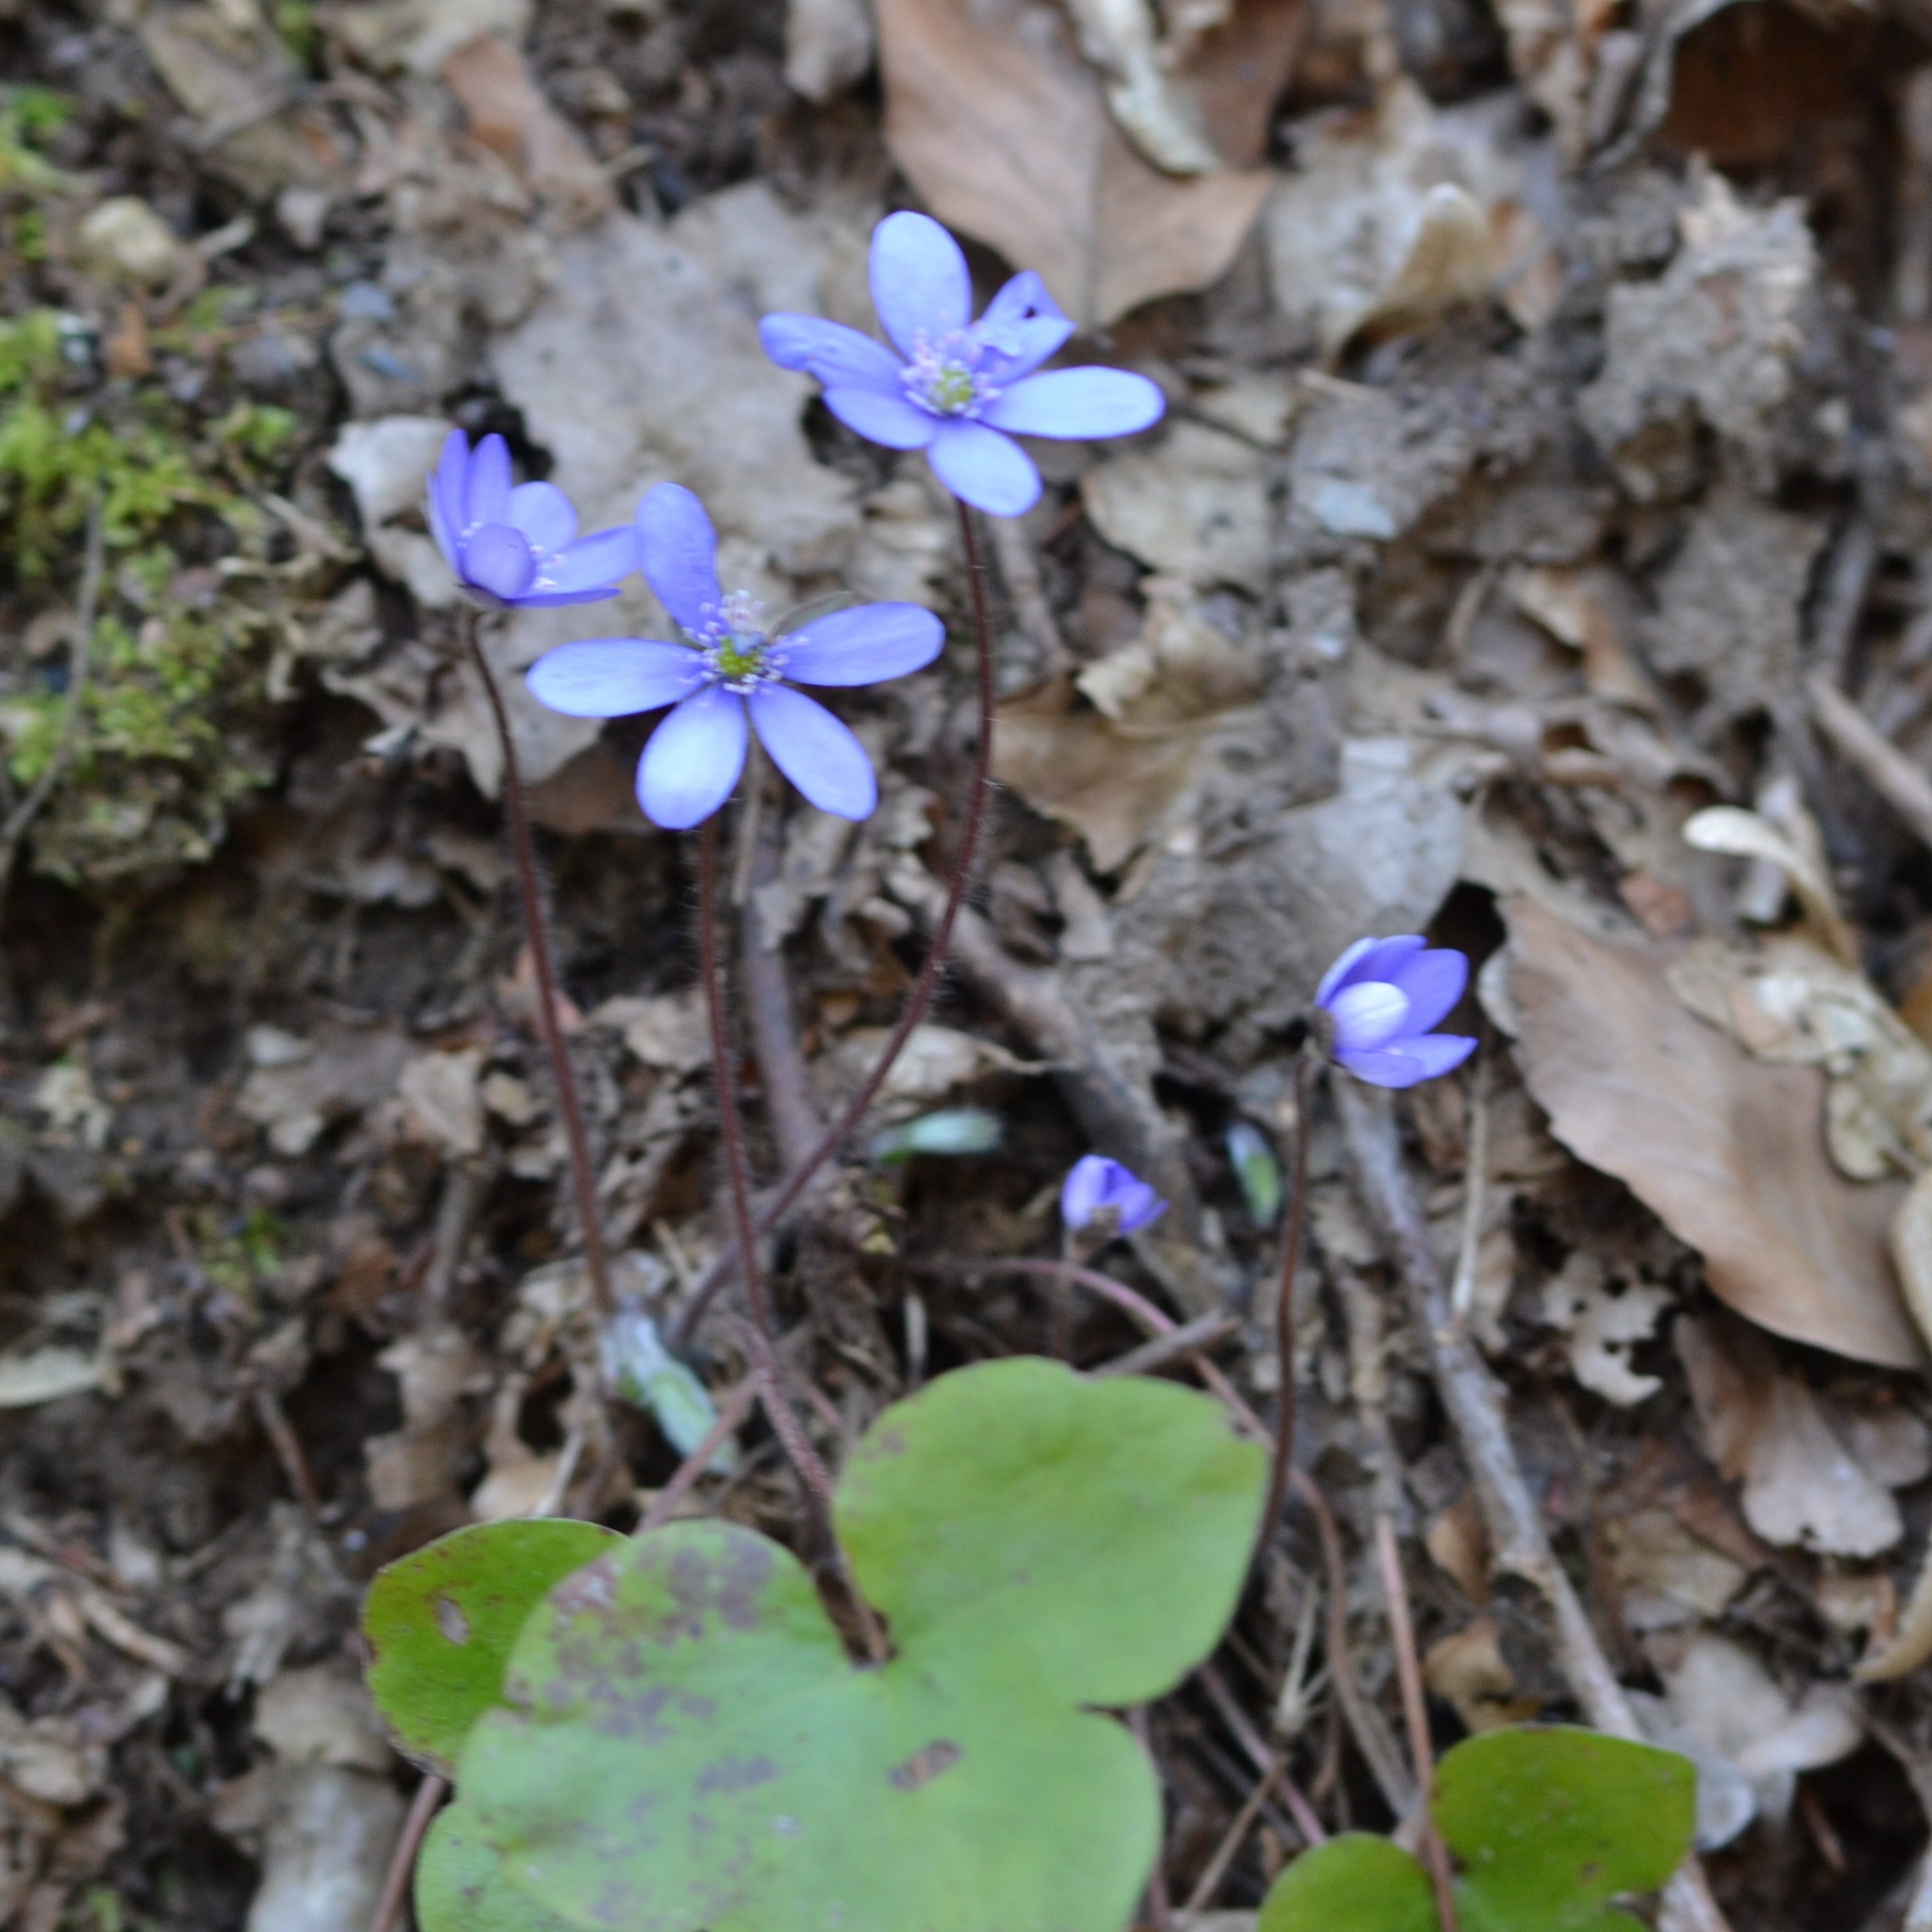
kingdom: Plantae
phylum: Tracheophyta
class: Magnoliopsida
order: Ranunculales
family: Ranunculaceae
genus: Hepatica
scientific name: Hepatica nobilis
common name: Liverleaf
